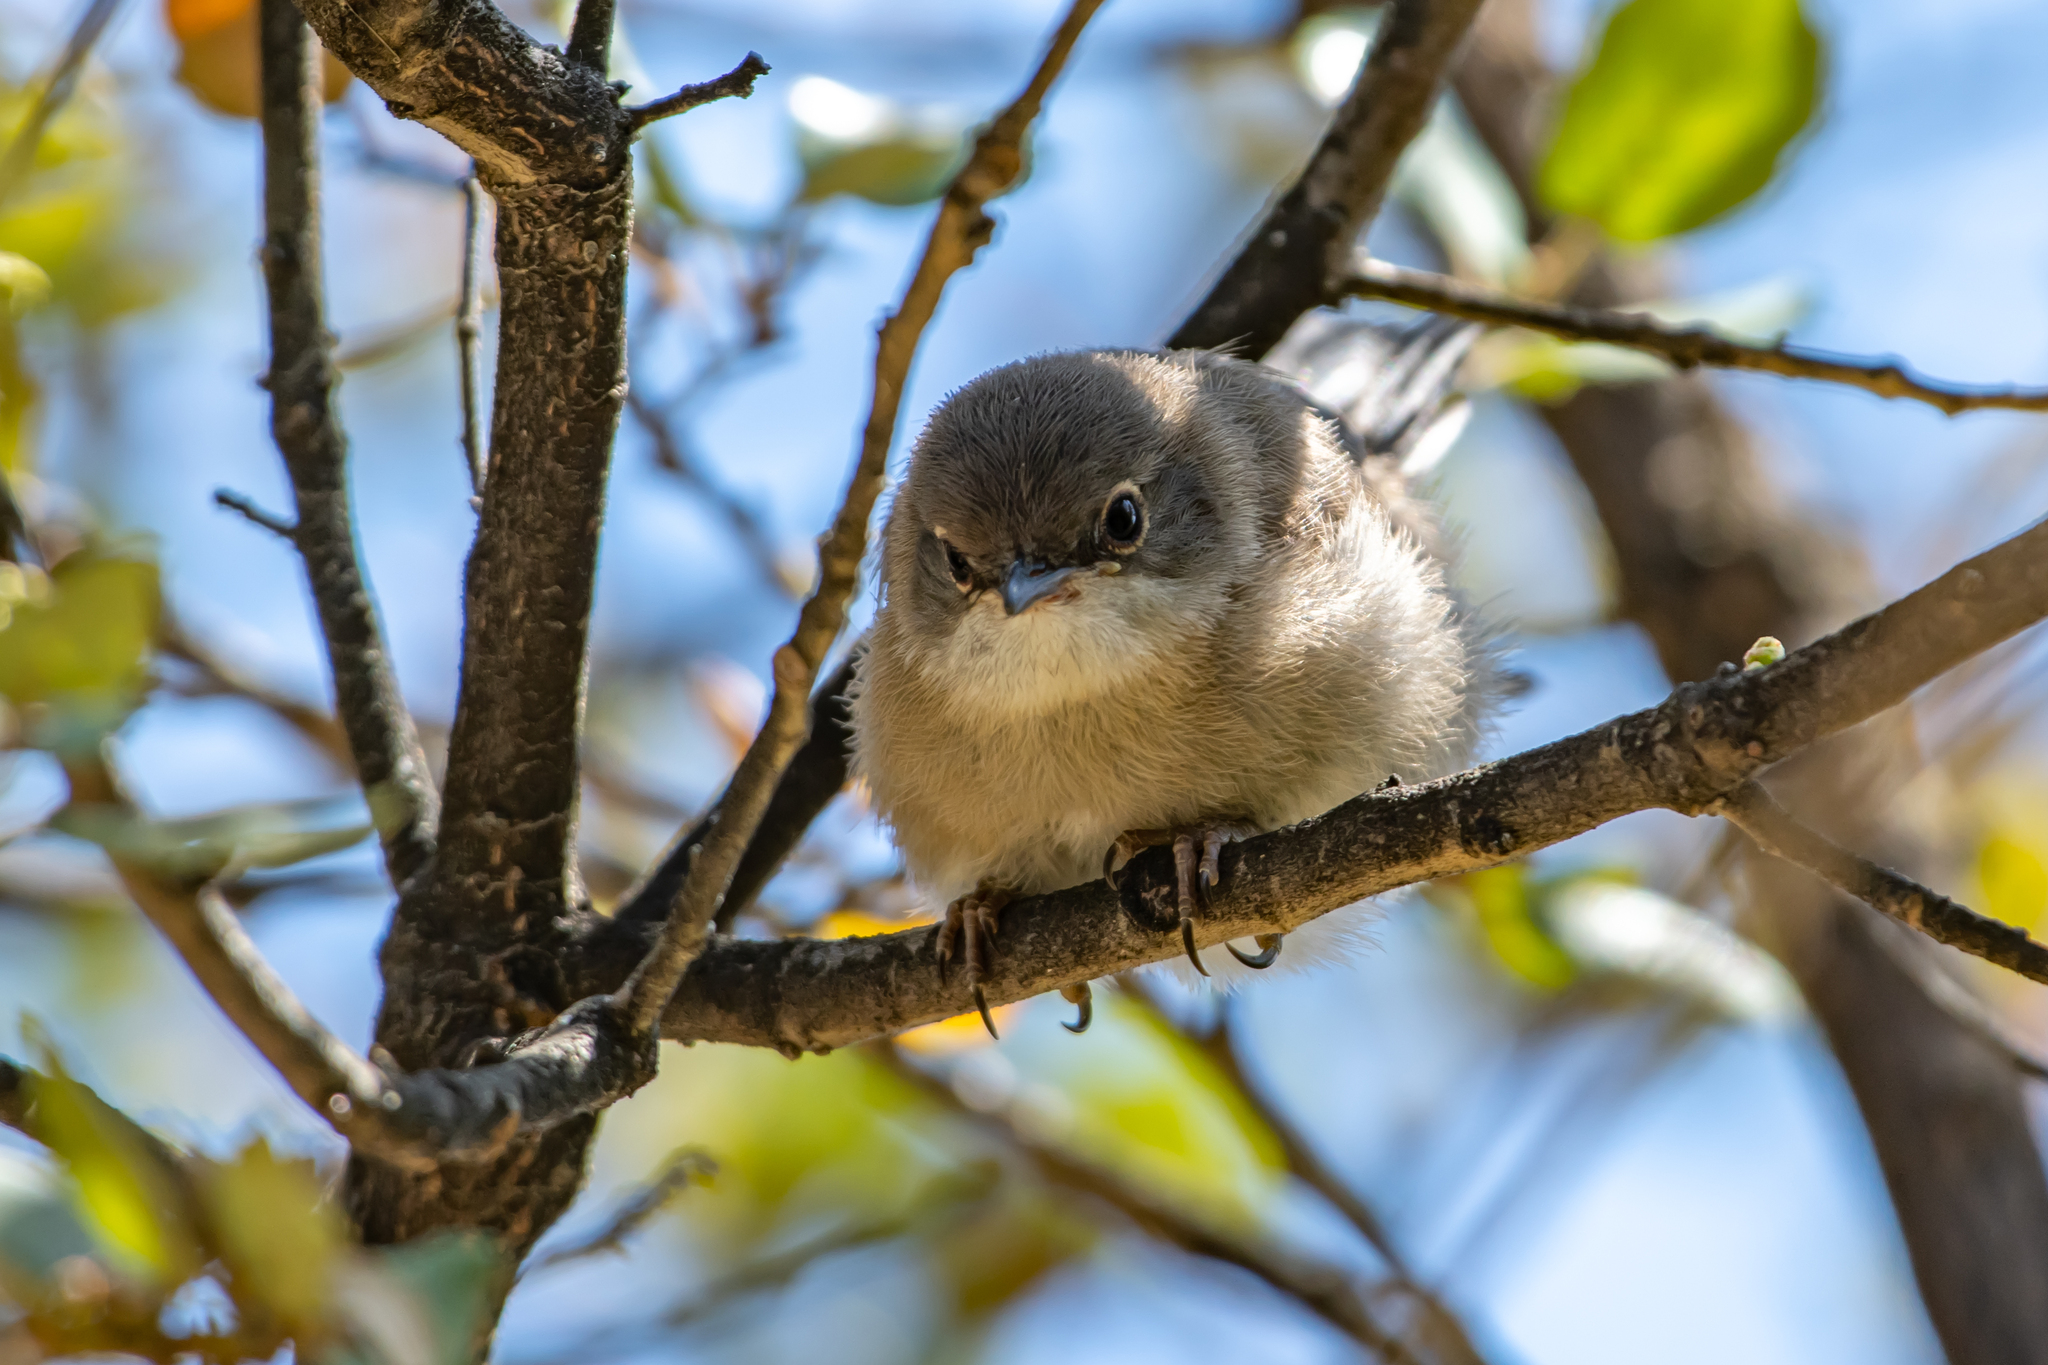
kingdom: Animalia
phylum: Chordata
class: Aves
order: Passeriformes
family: Sylviidae
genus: Curruca
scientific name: Curruca melanocephala
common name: Sardinian warbler
